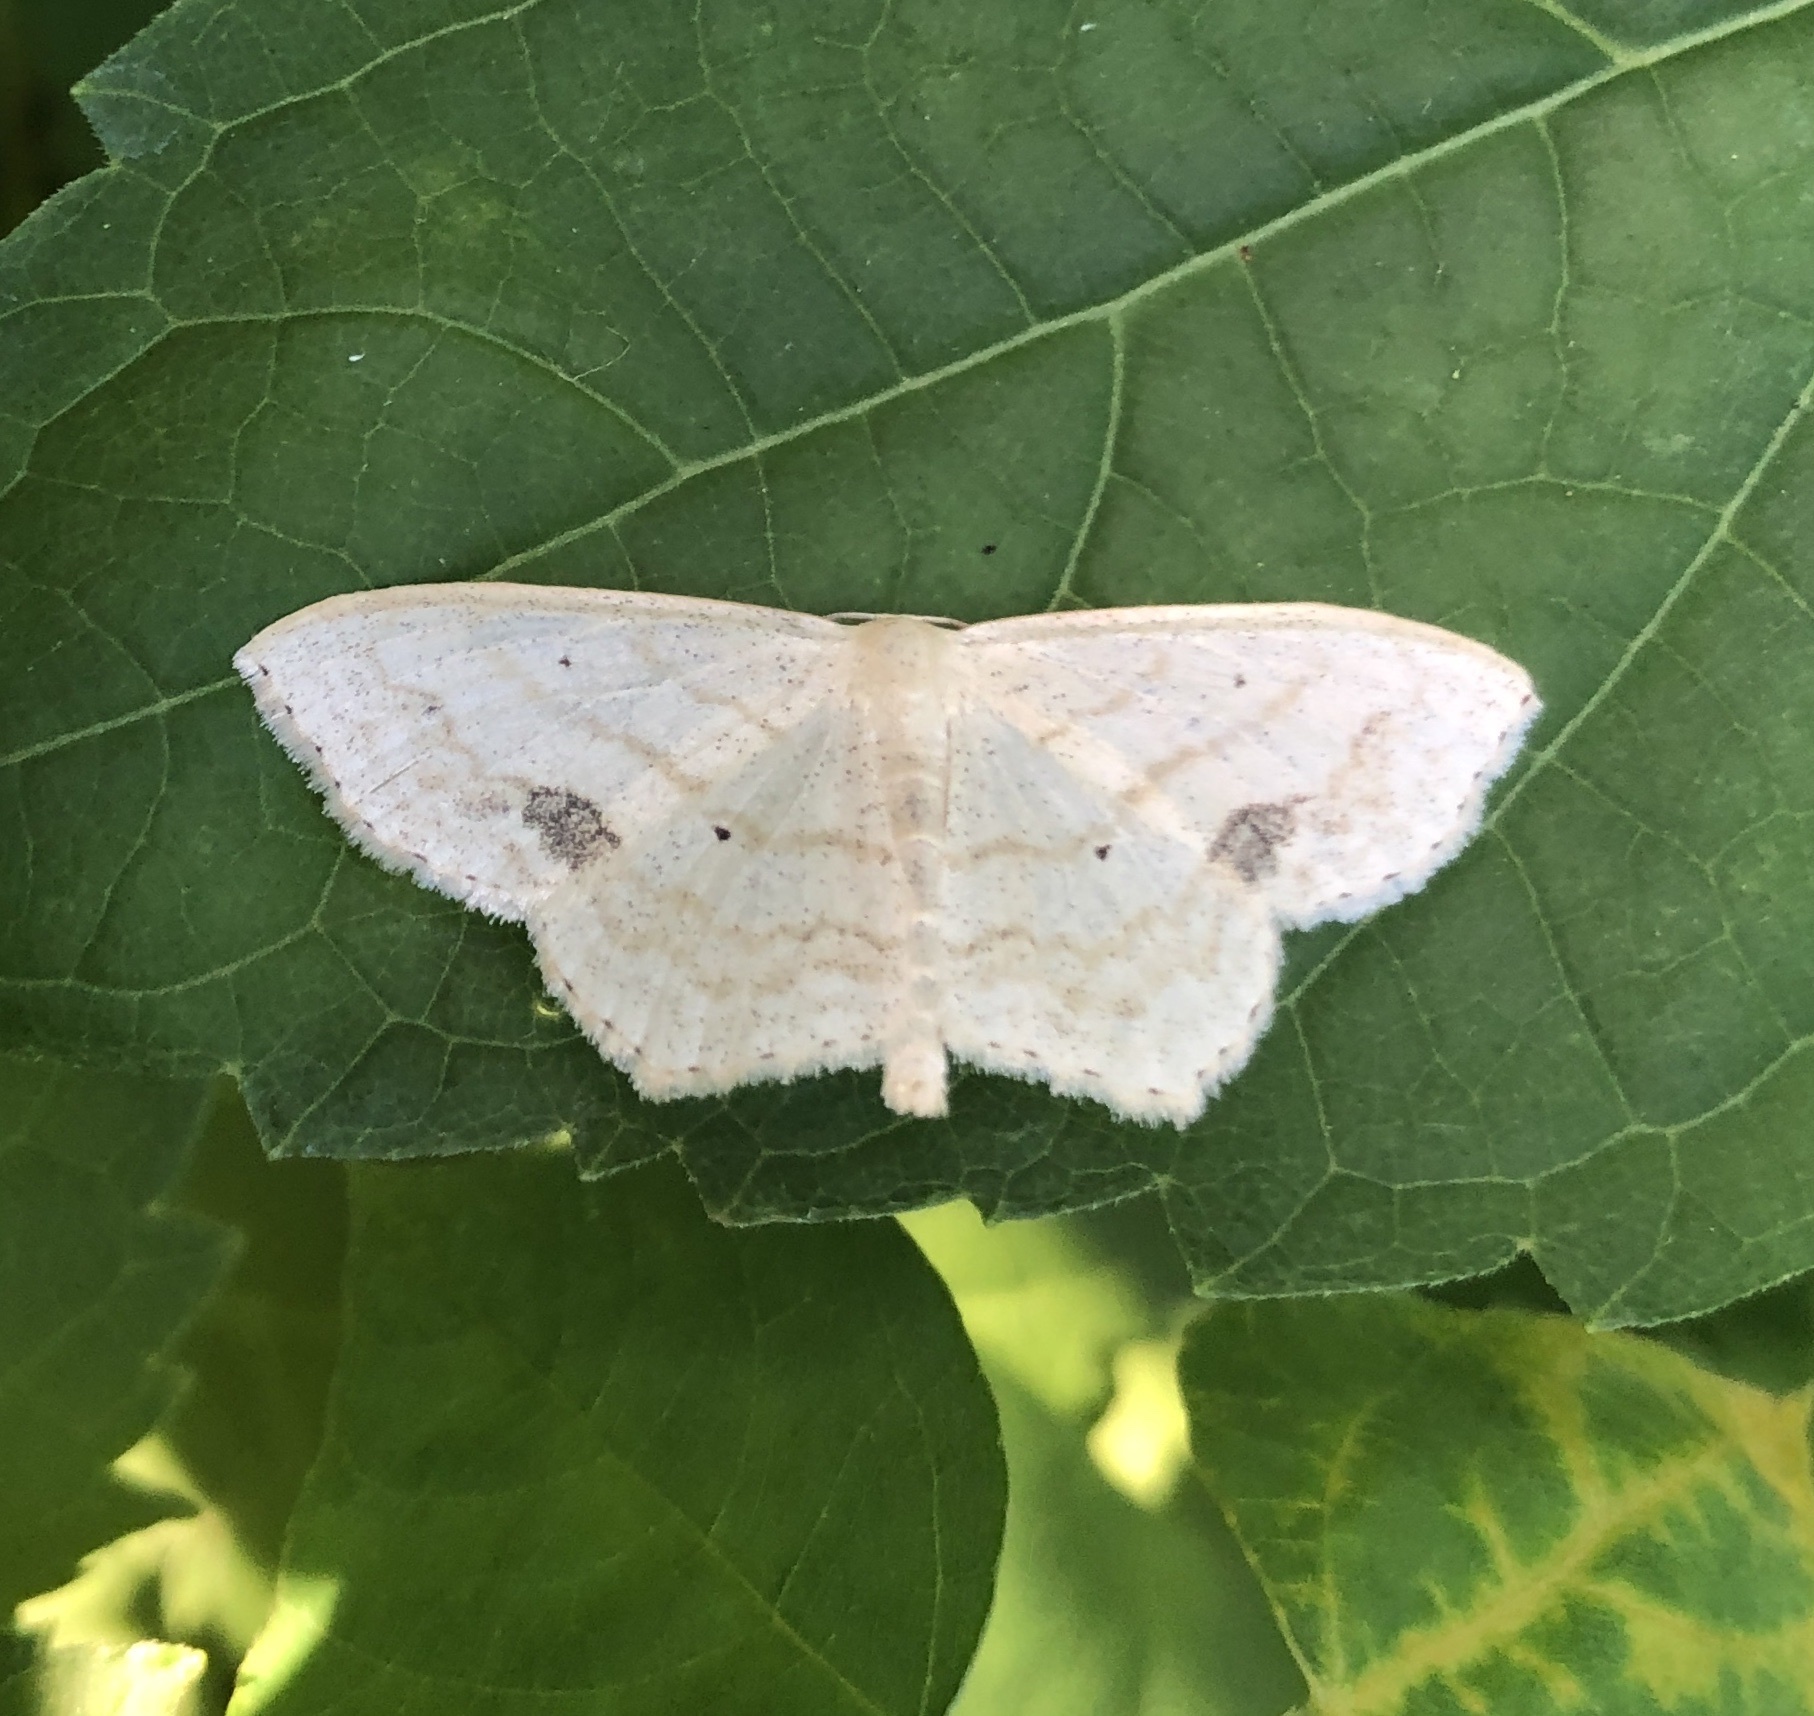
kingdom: Animalia
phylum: Arthropoda
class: Insecta
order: Lepidoptera
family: Geometridae
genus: Scopula
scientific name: Scopula limboundata
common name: Large lace border
